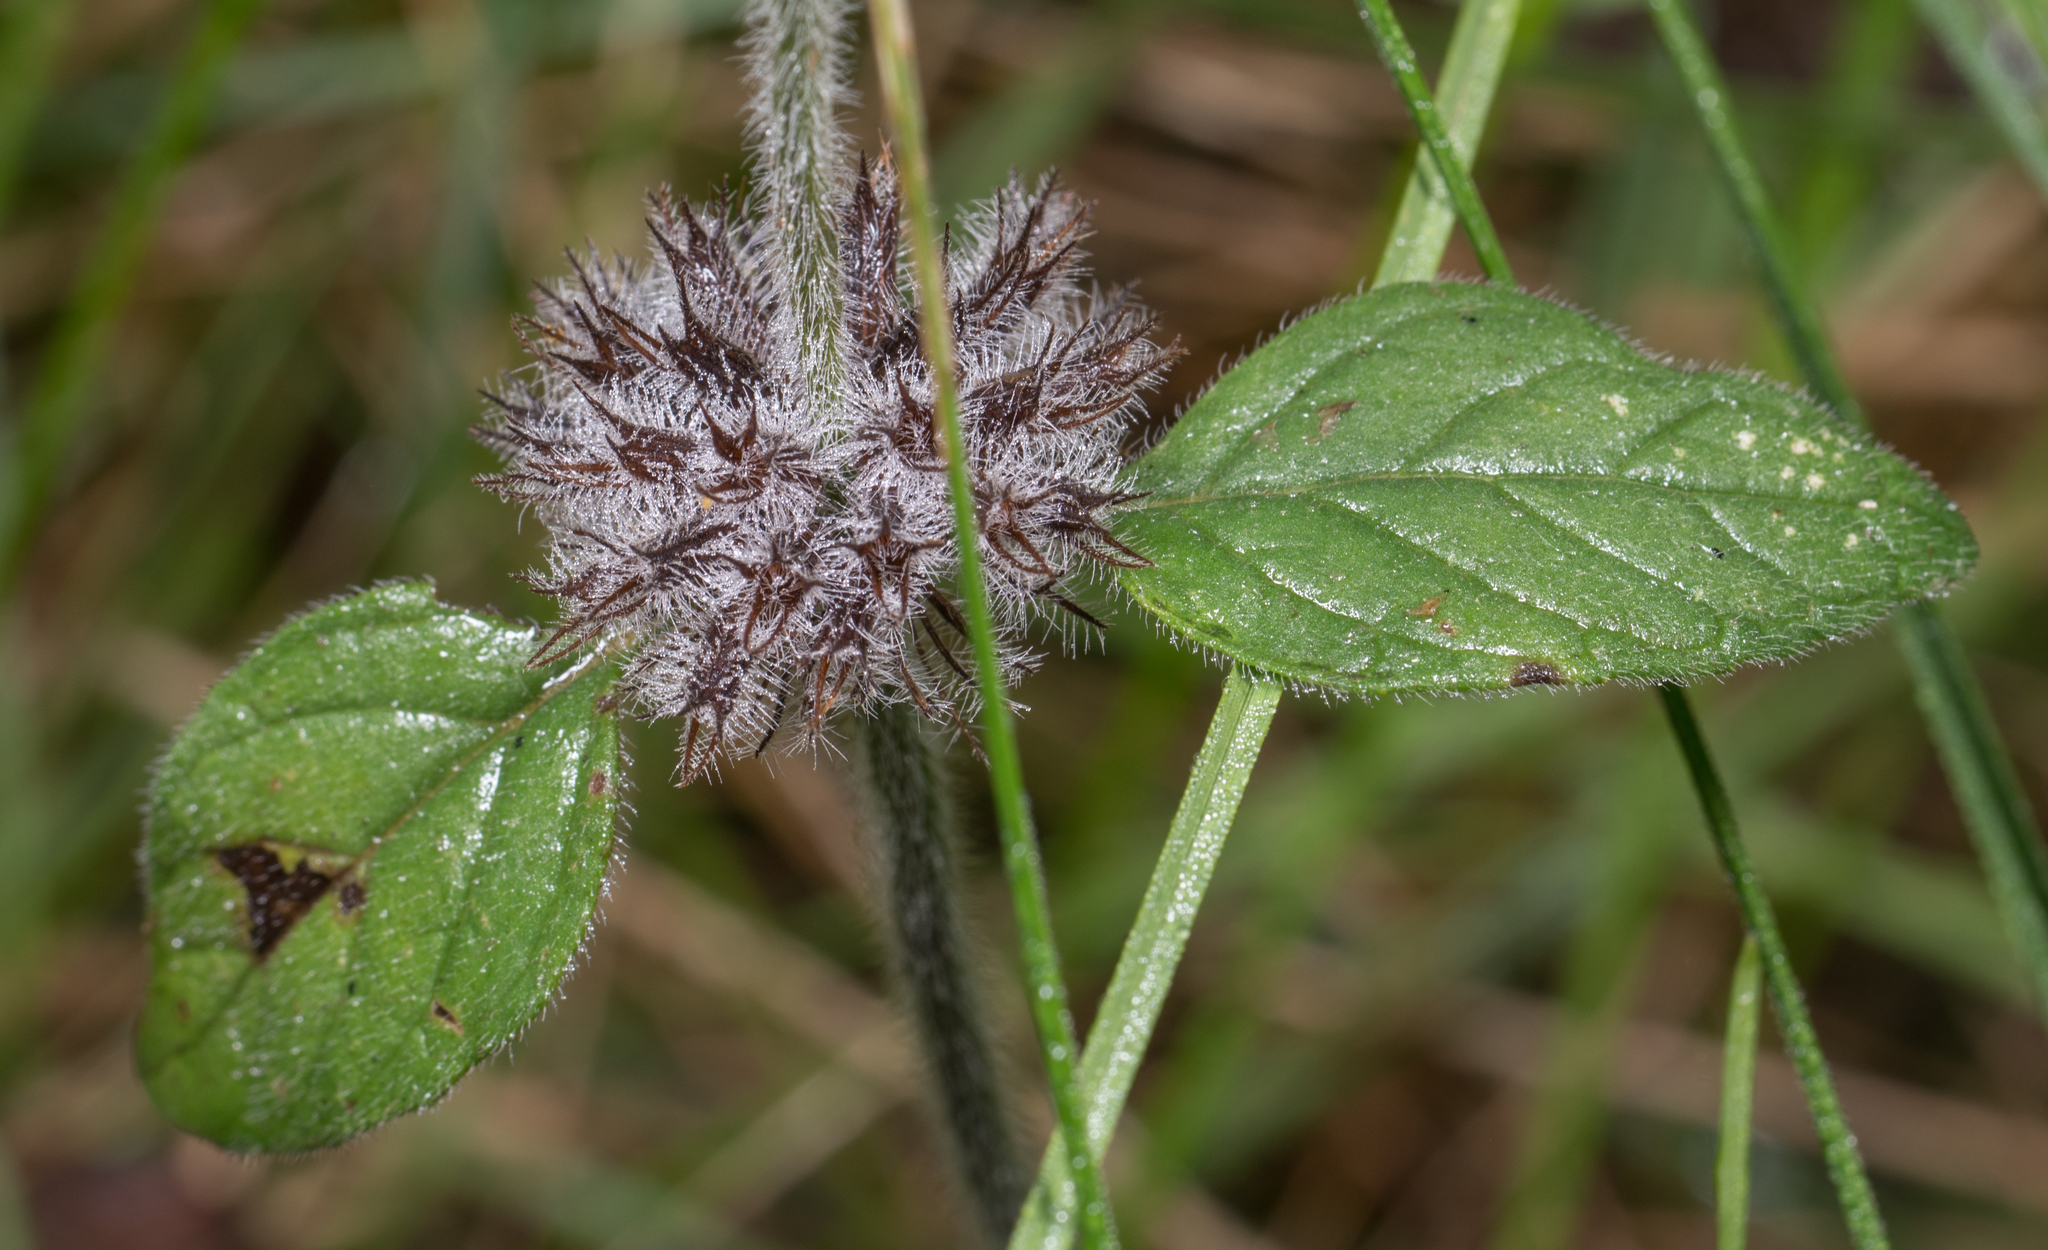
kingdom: Plantae
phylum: Tracheophyta
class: Magnoliopsida
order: Lamiales
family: Lamiaceae
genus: Clinopodium
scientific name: Clinopodium vulgare
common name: Wild basil
